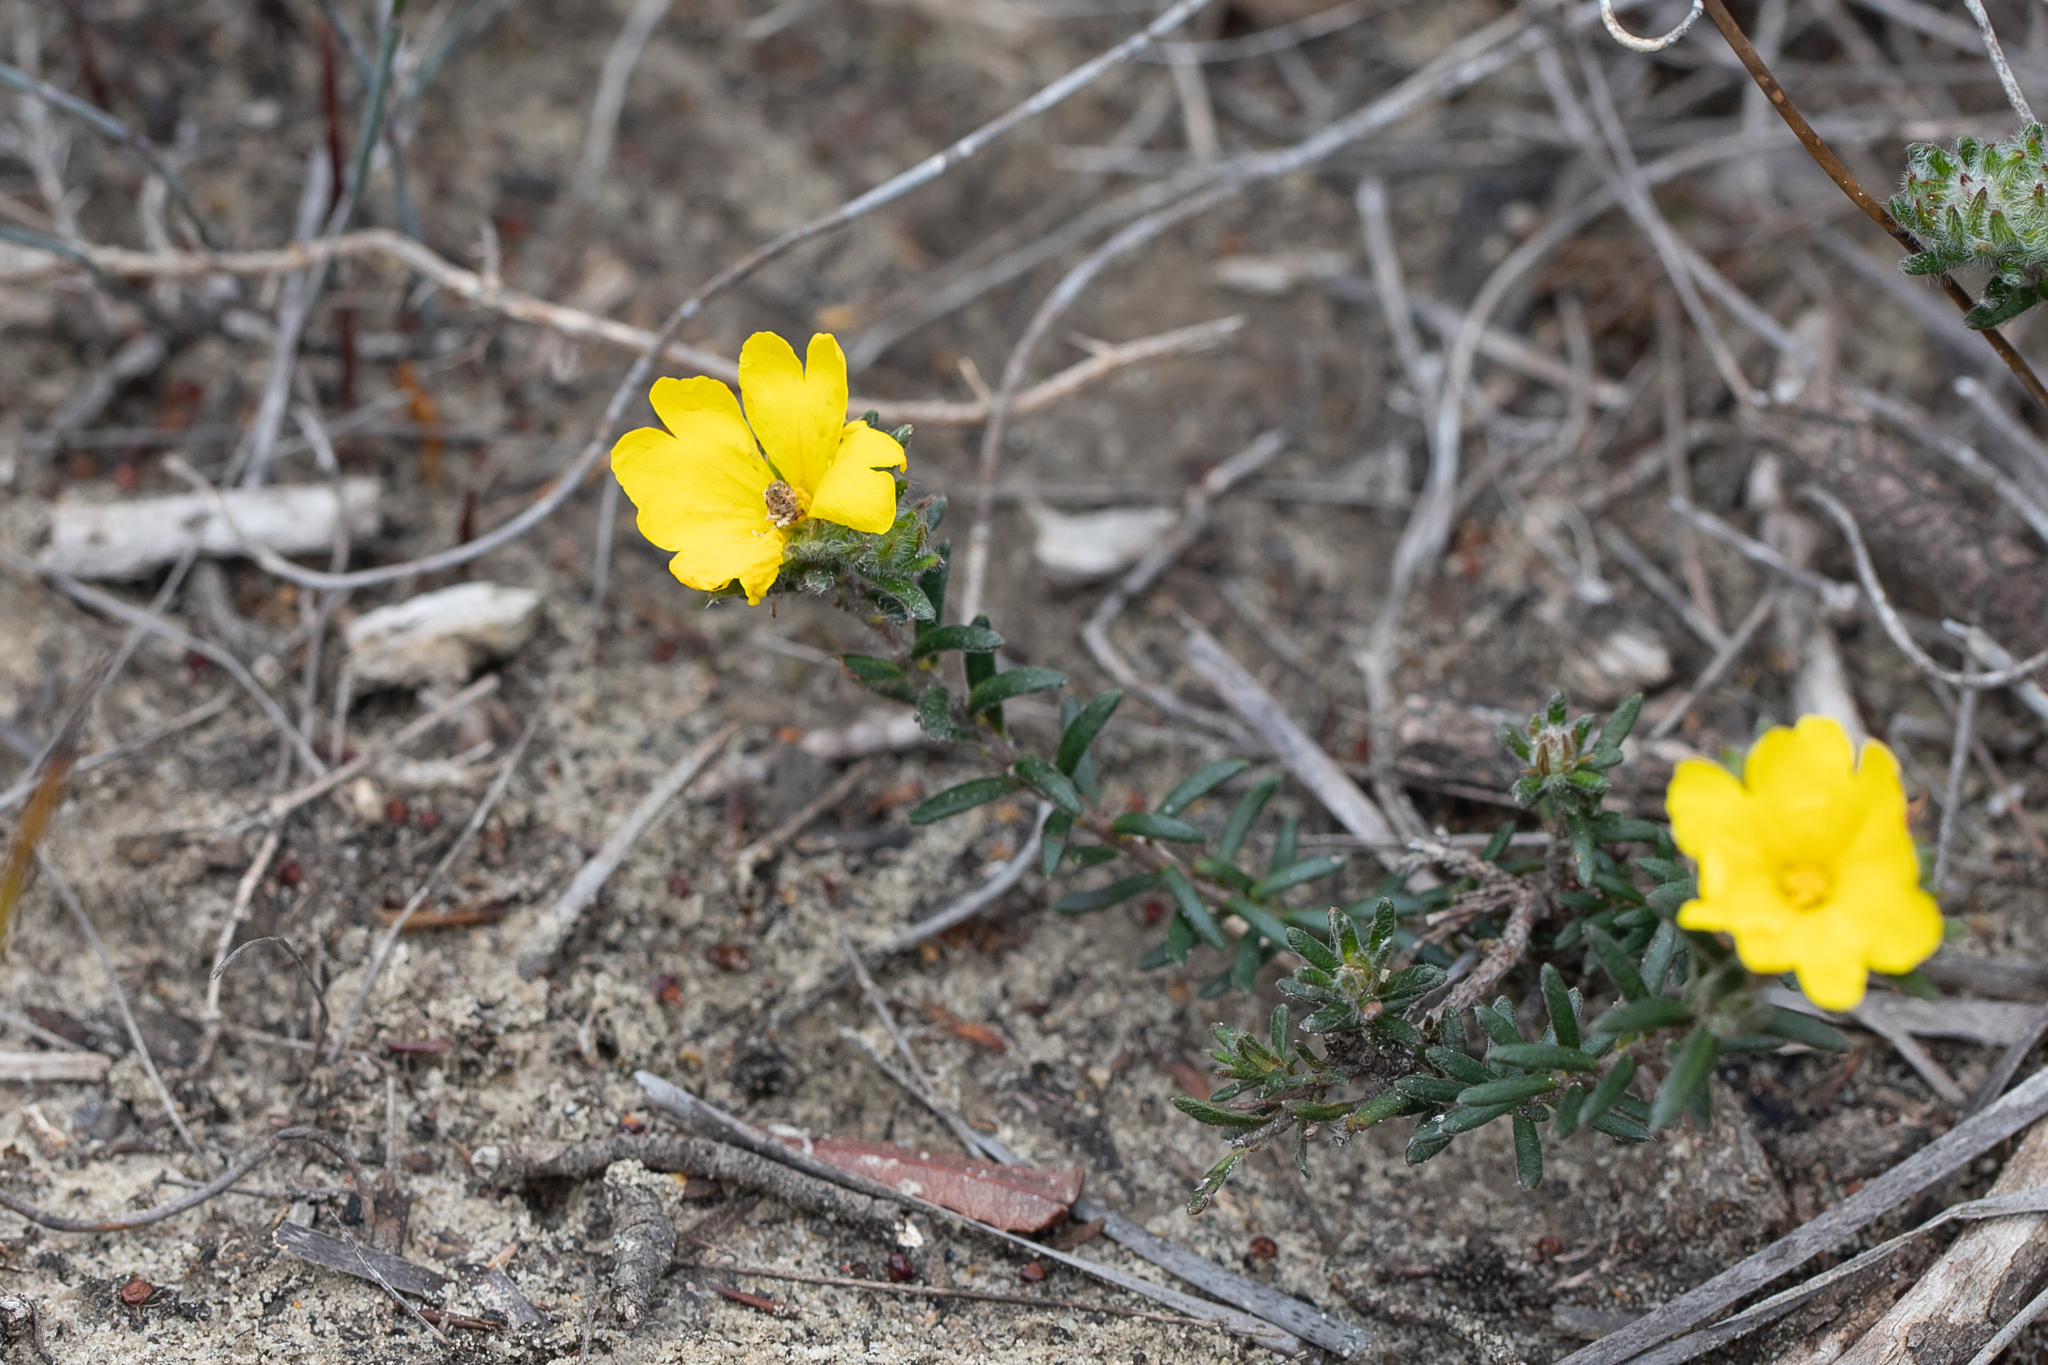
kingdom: Plantae
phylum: Tracheophyta
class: Magnoliopsida
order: Dilleniales
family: Dilleniaceae
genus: Hibbertia
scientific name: Hibbertia villifera
